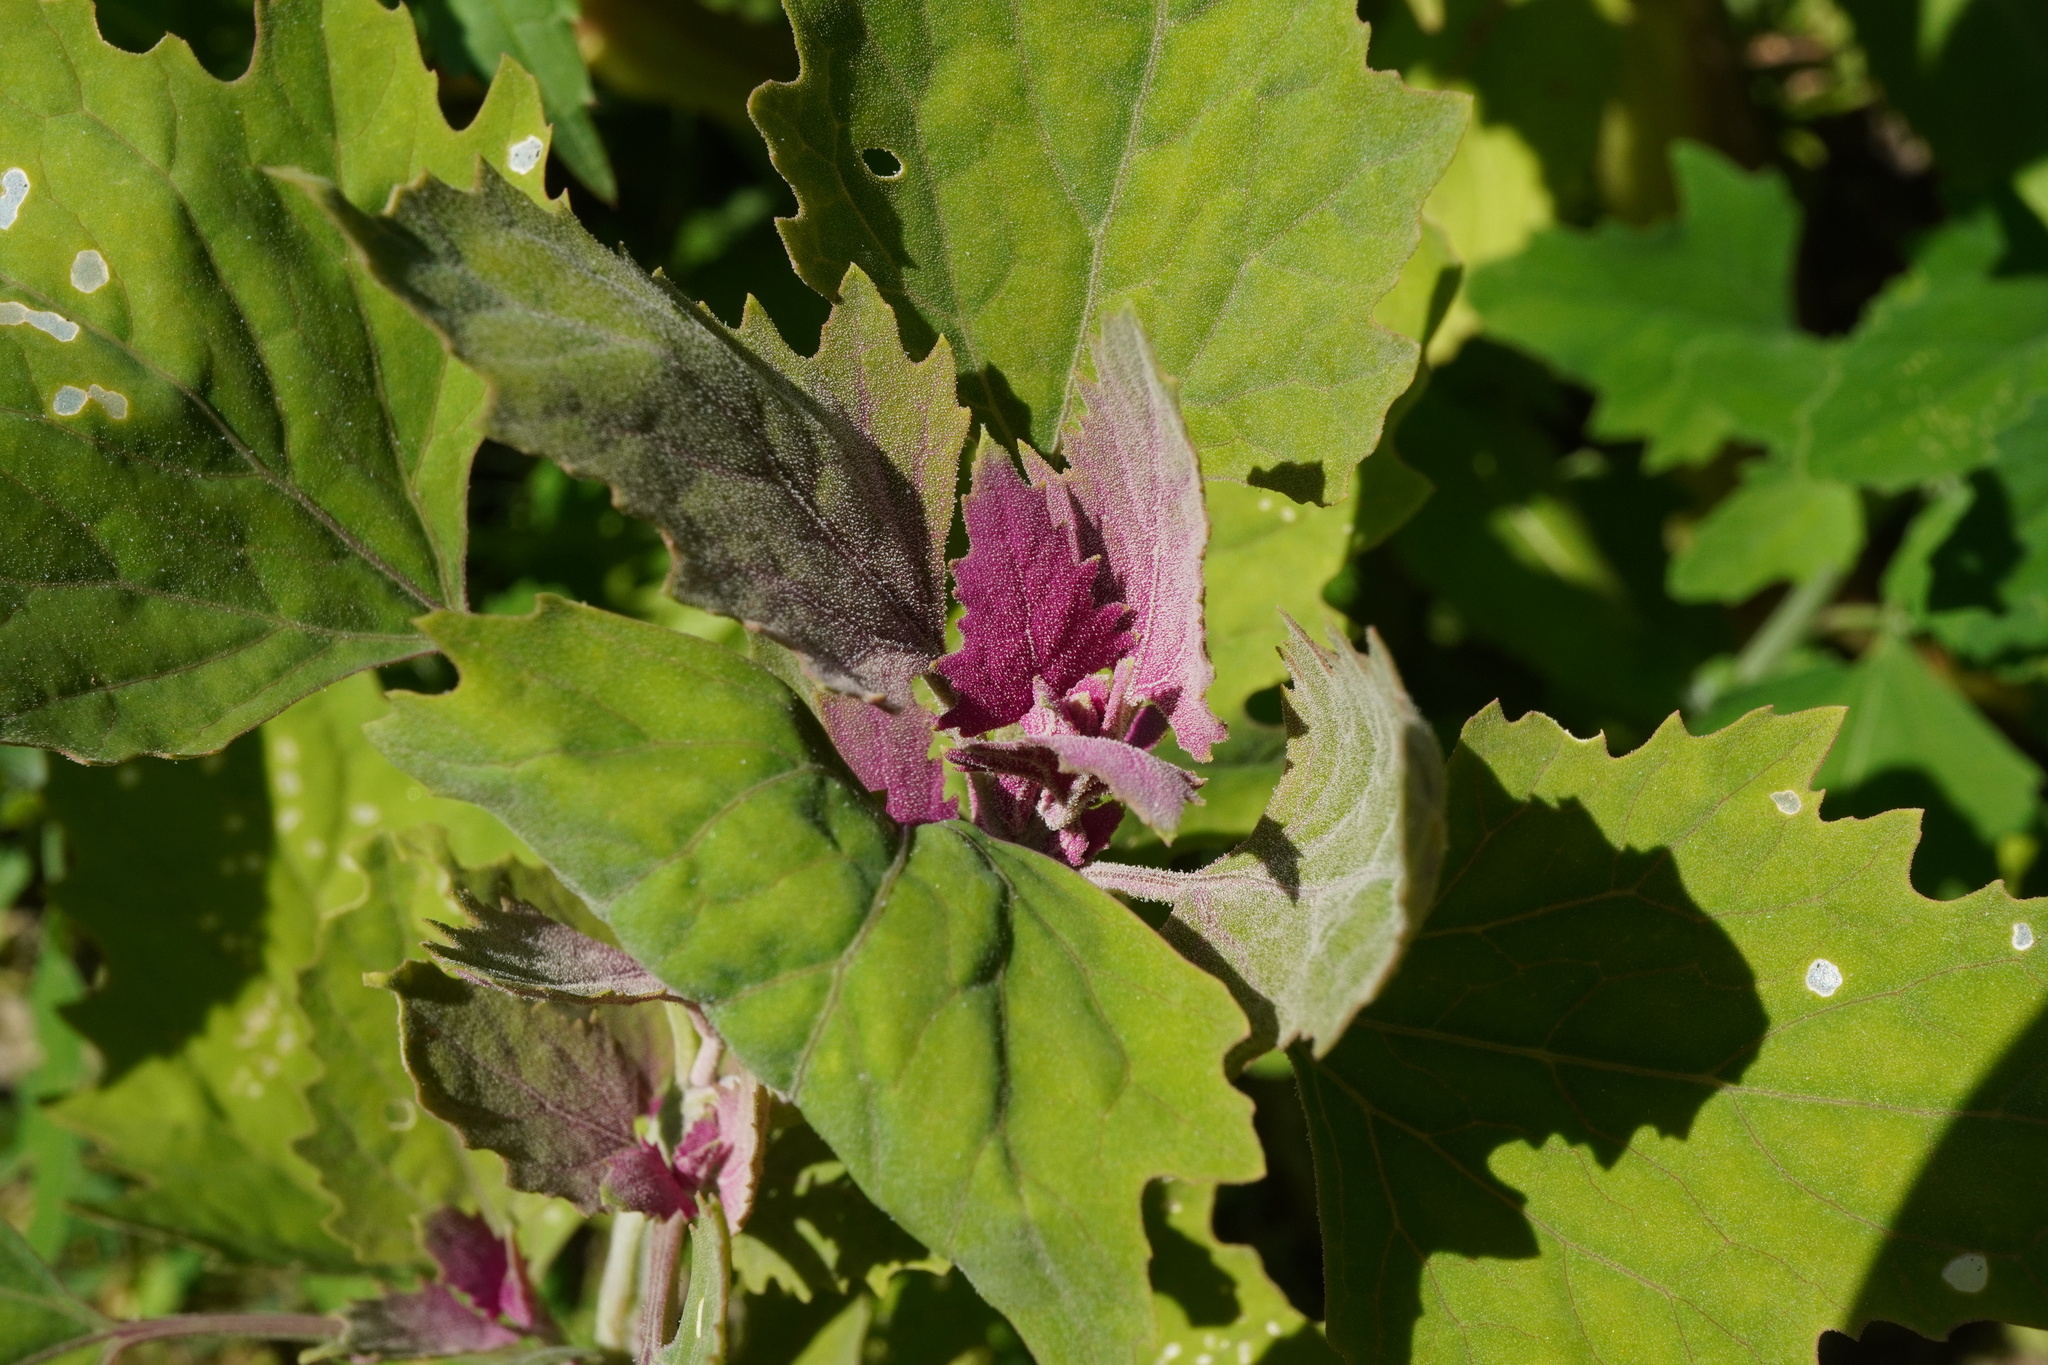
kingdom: Plantae
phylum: Tracheophyta
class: Magnoliopsida
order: Caryophyllales
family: Amaranthaceae
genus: Chenopodium
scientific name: Chenopodium giganteum
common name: Magentaspreen
